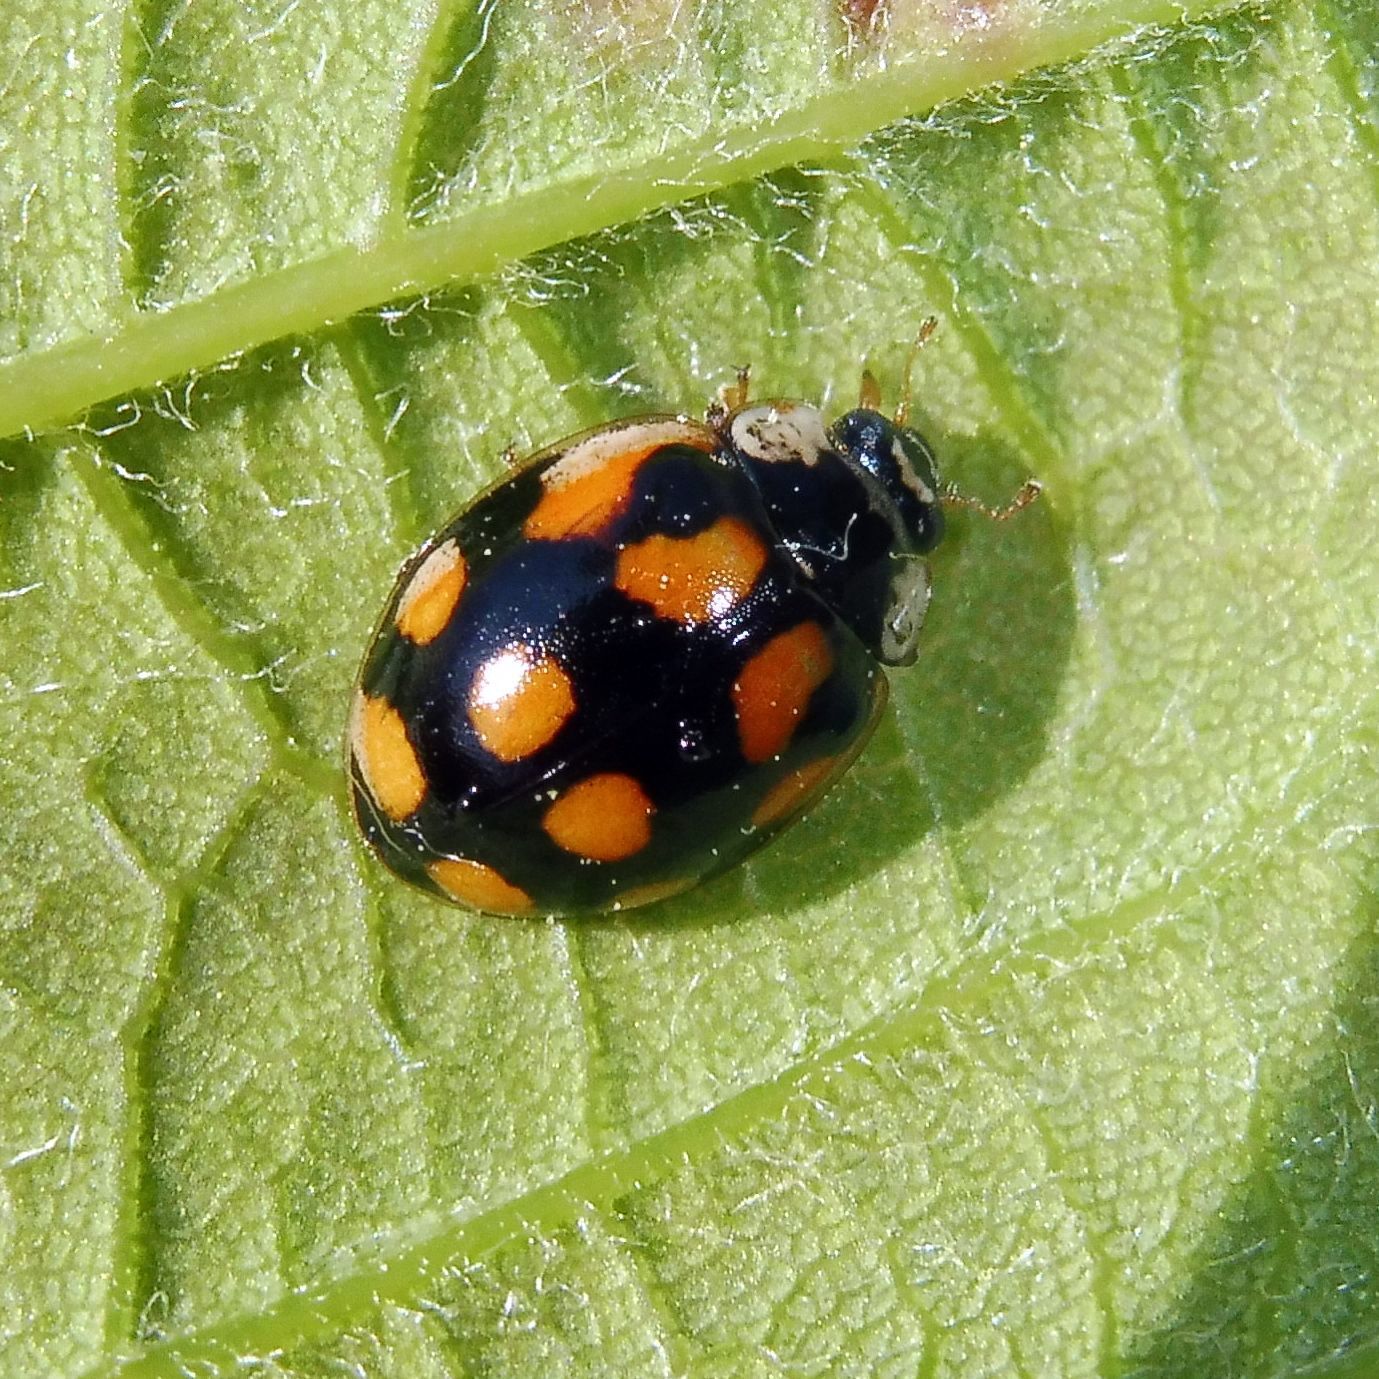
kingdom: Animalia
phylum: Arthropoda
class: Insecta
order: Coleoptera
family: Coccinellidae
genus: Adalia
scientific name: Adalia decempunctata
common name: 10-spot ladybird
